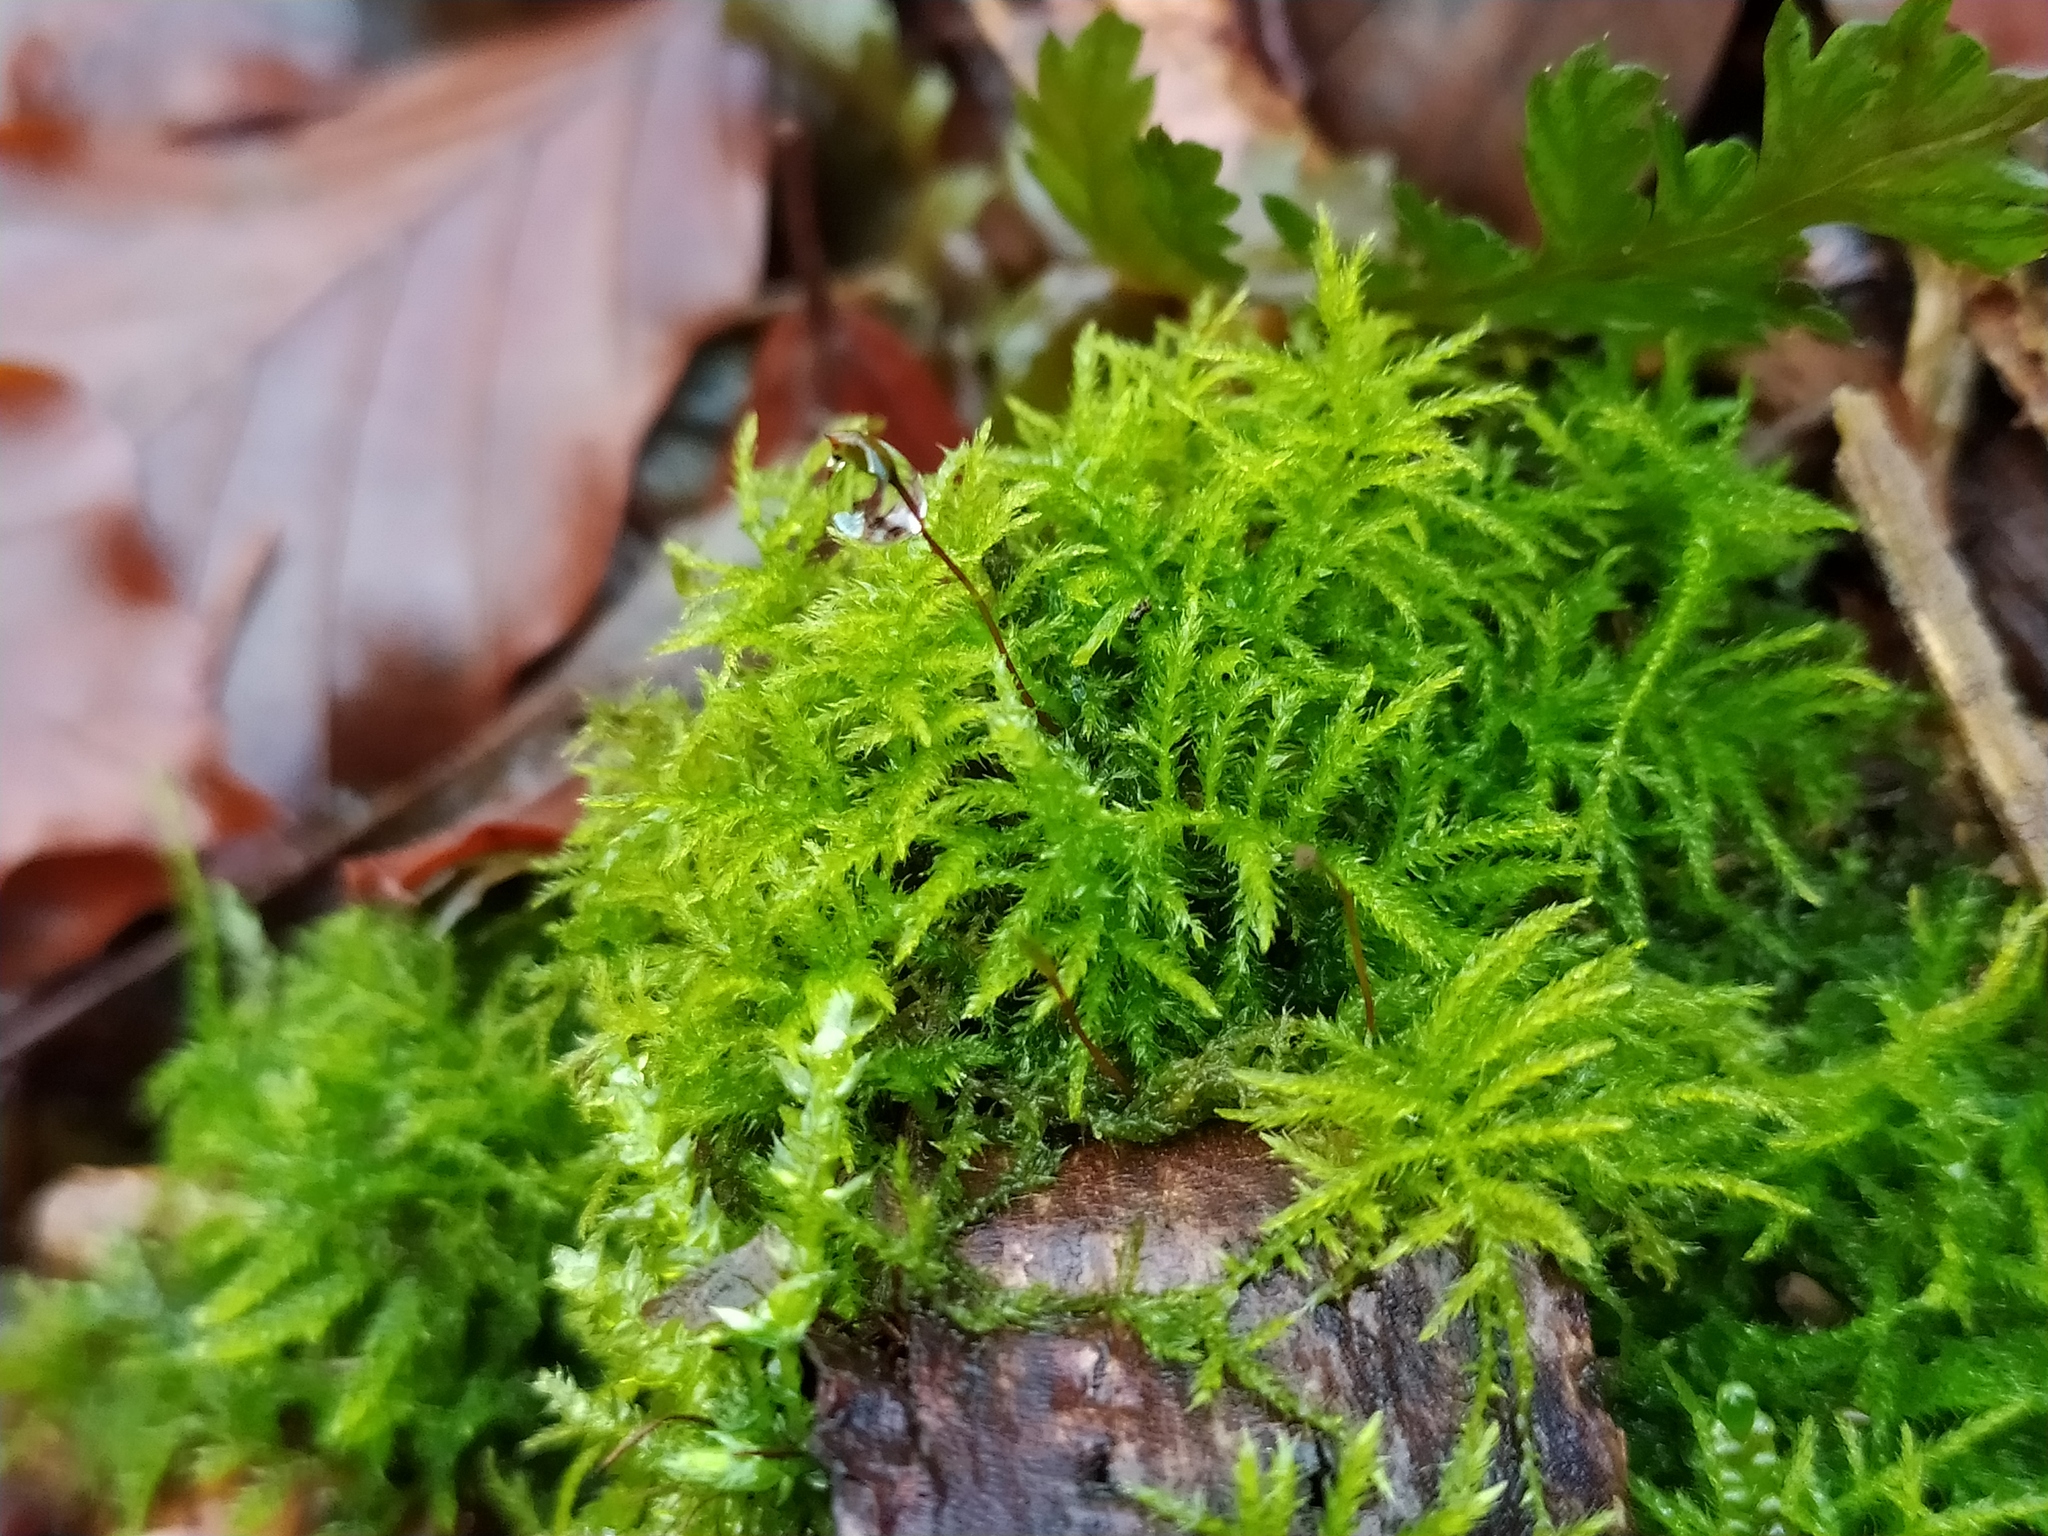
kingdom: Plantae
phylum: Bryophyta
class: Bryopsida
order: Hypnales
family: Brachytheciaceae
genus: Sciuro-hypnum
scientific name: Sciuro-hypnum reflexum
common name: Reflexed feather-moss
